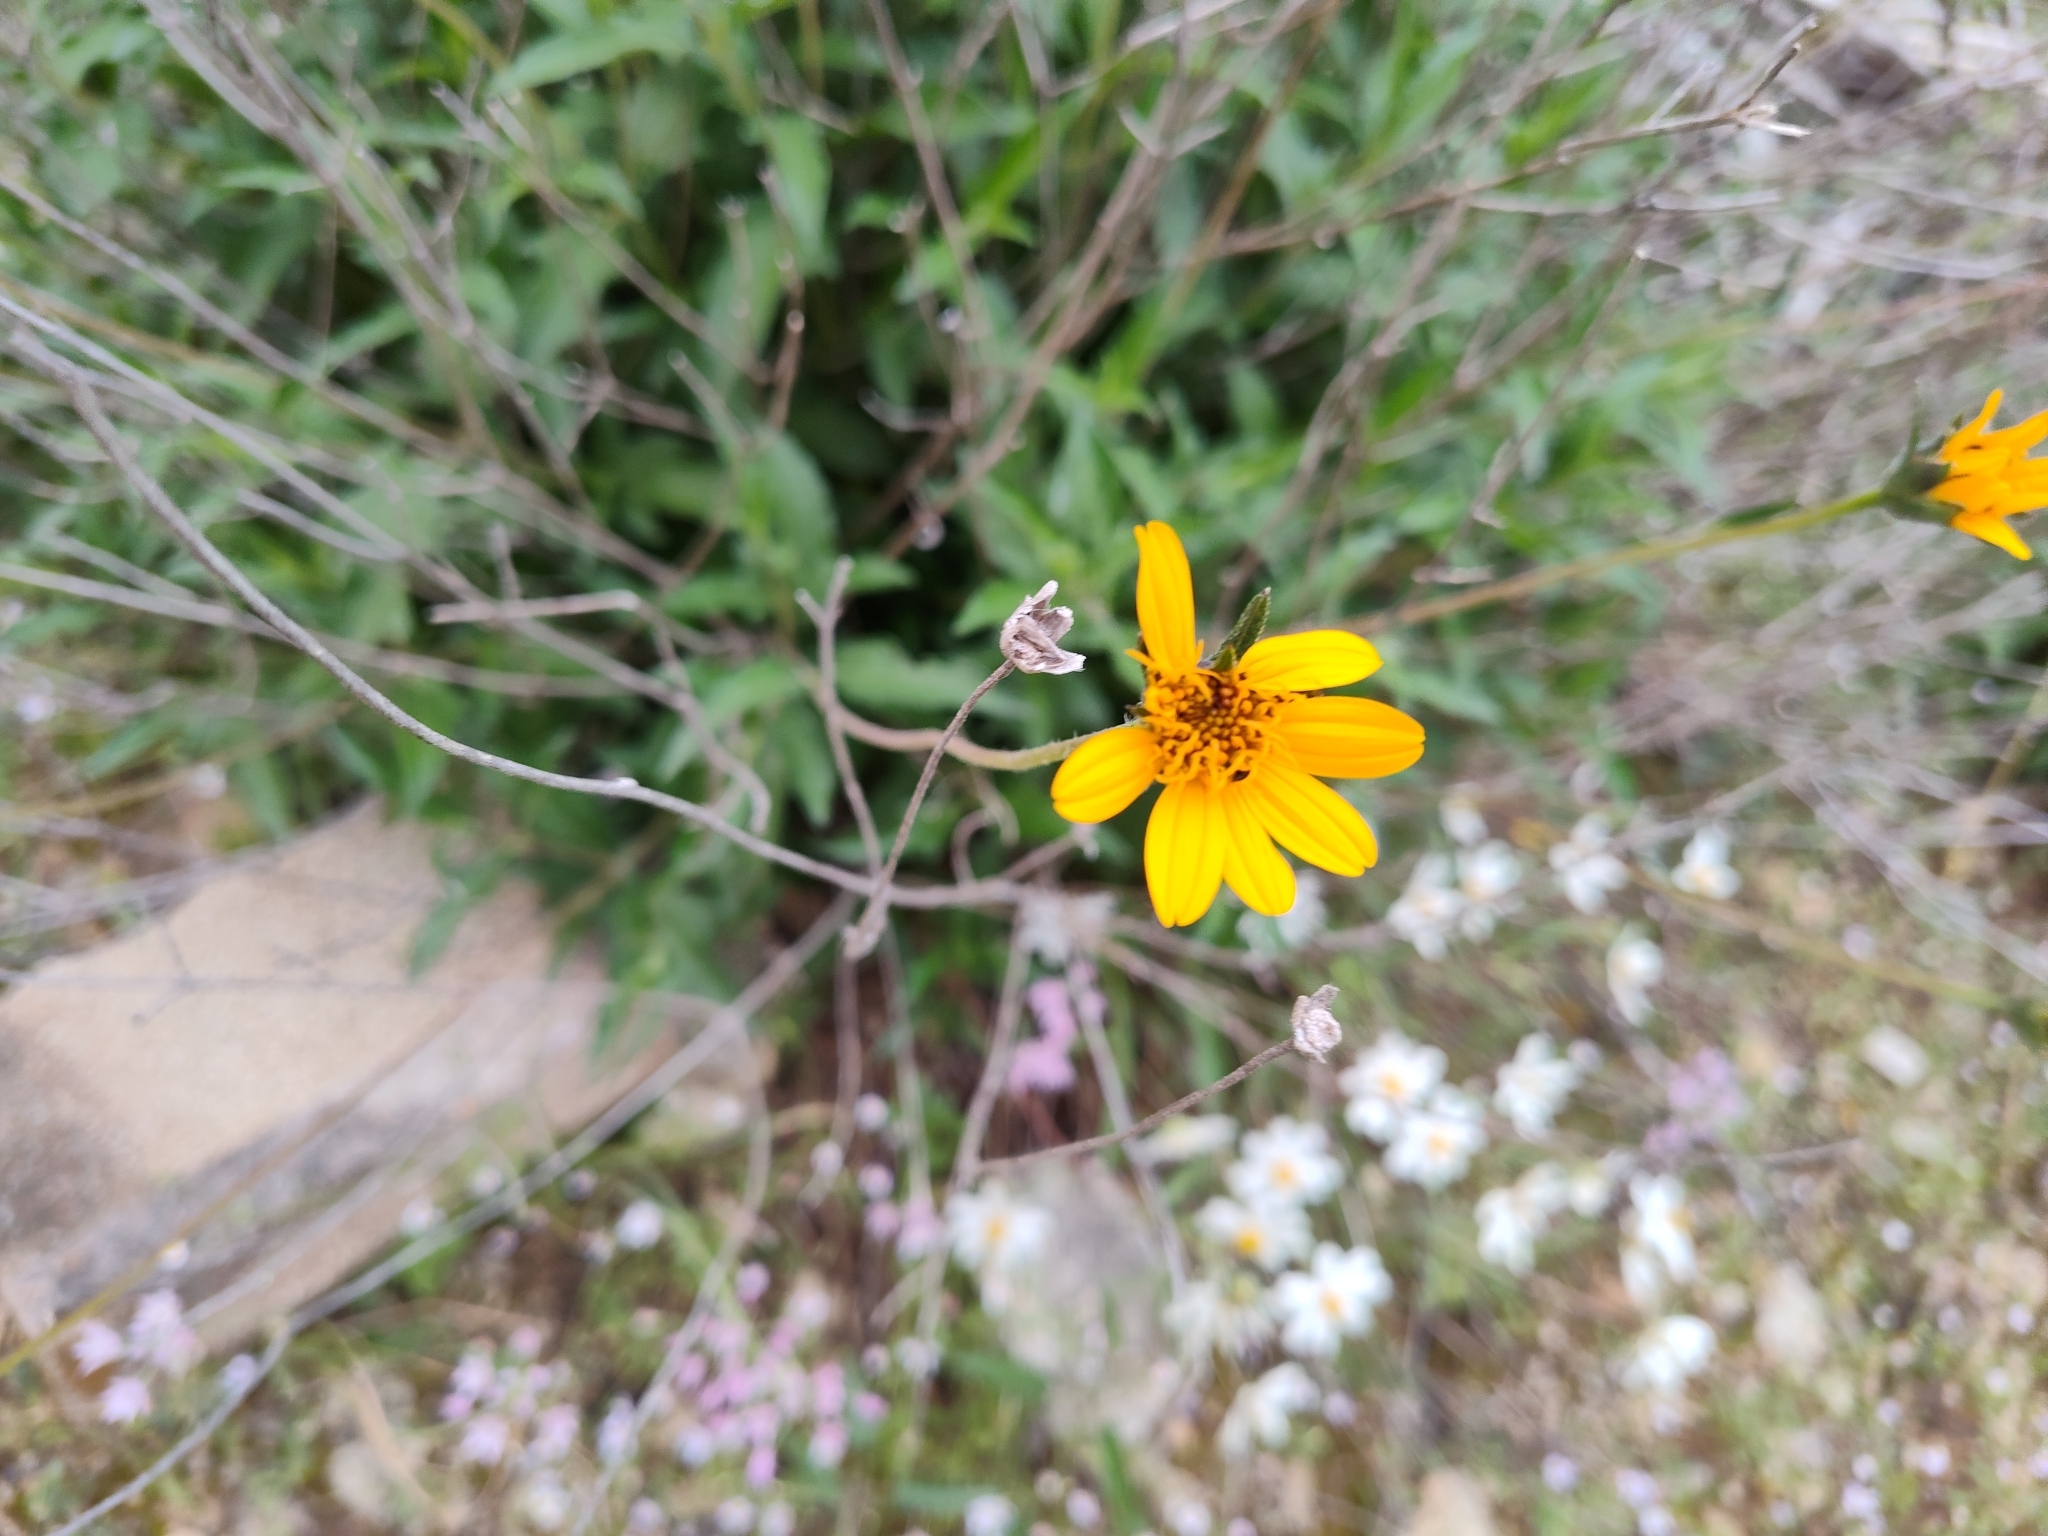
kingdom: Plantae
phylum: Tracheophyta
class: Magnoliopsida
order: Asterales
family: Asteraceae
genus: Wedelia
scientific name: Wedelia acapulcensis
